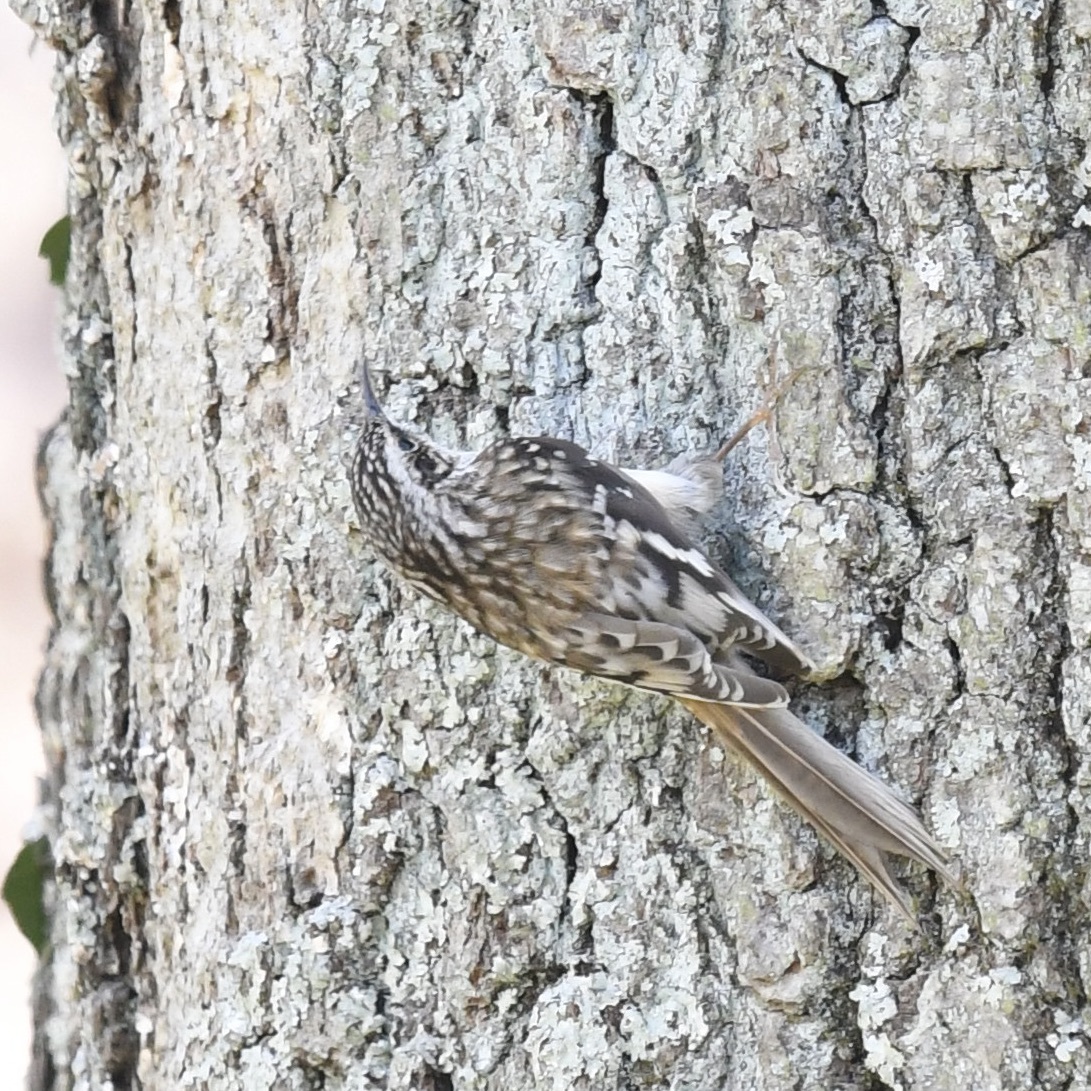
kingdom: Animalia
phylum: Chordata
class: Aves
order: Passeriformes
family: Certhiidae
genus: Certhia
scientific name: Certhia americana
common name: Brown creeper
